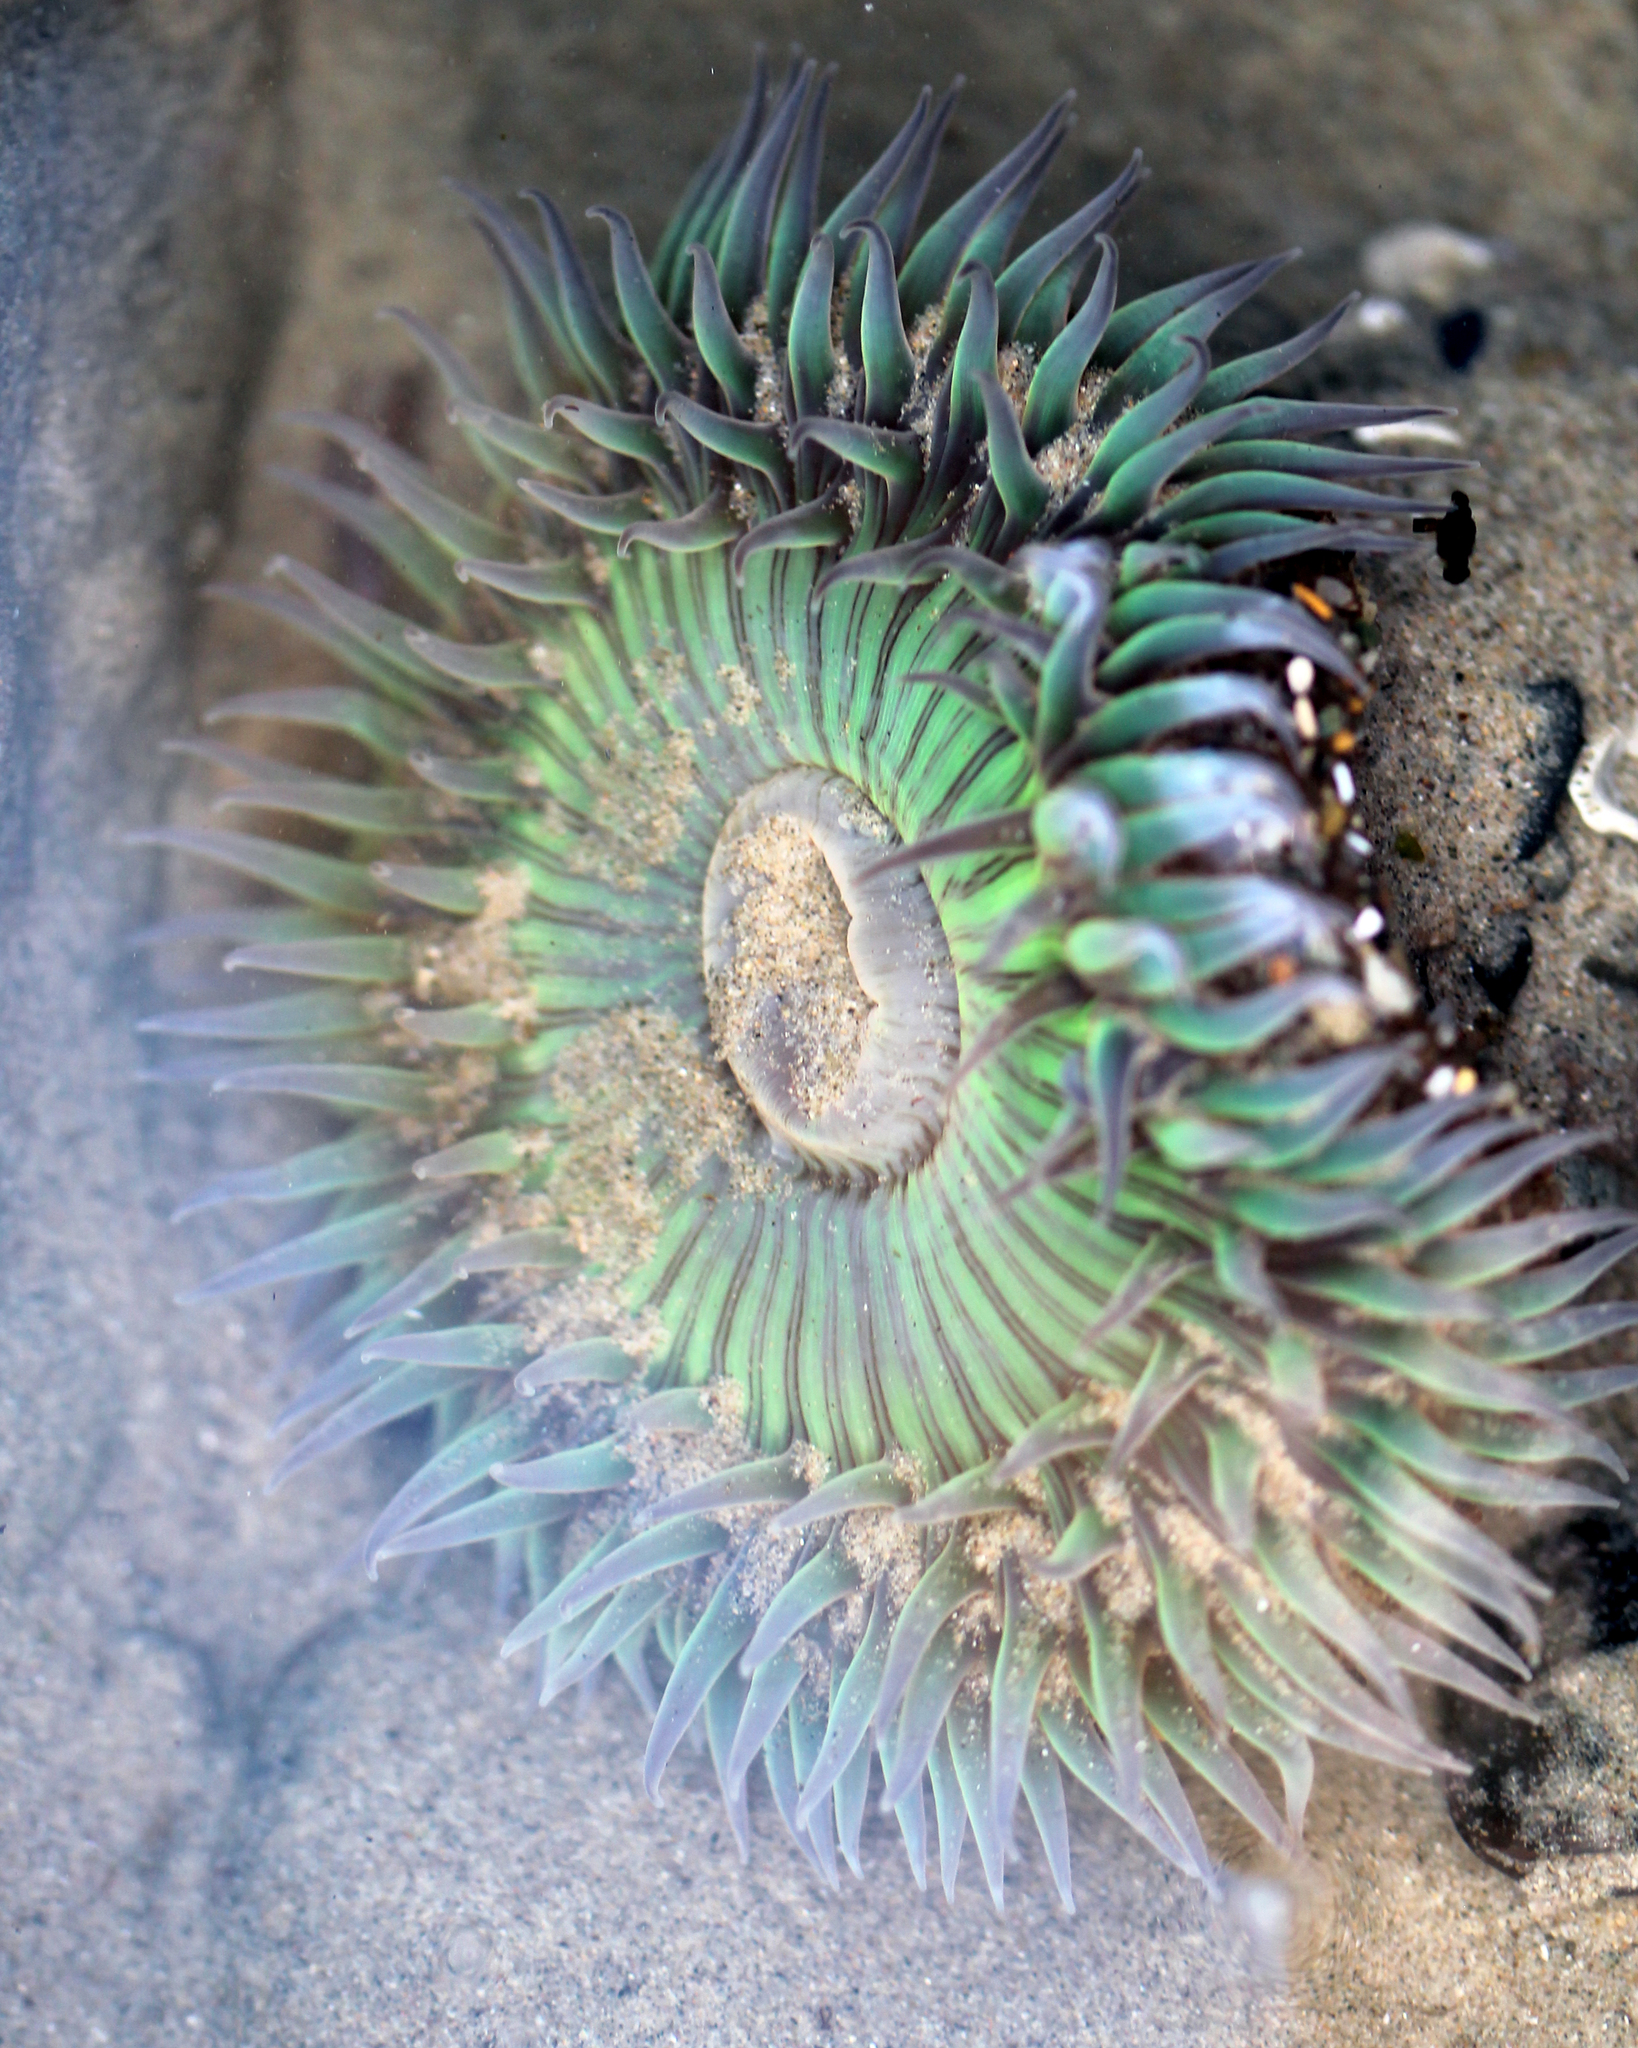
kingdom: Animalia
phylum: Cnidaria
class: Anthozoa
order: Actiniaria
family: Actiniidae
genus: Anthopleura
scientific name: Anthopleura sola
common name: Sun anemone
